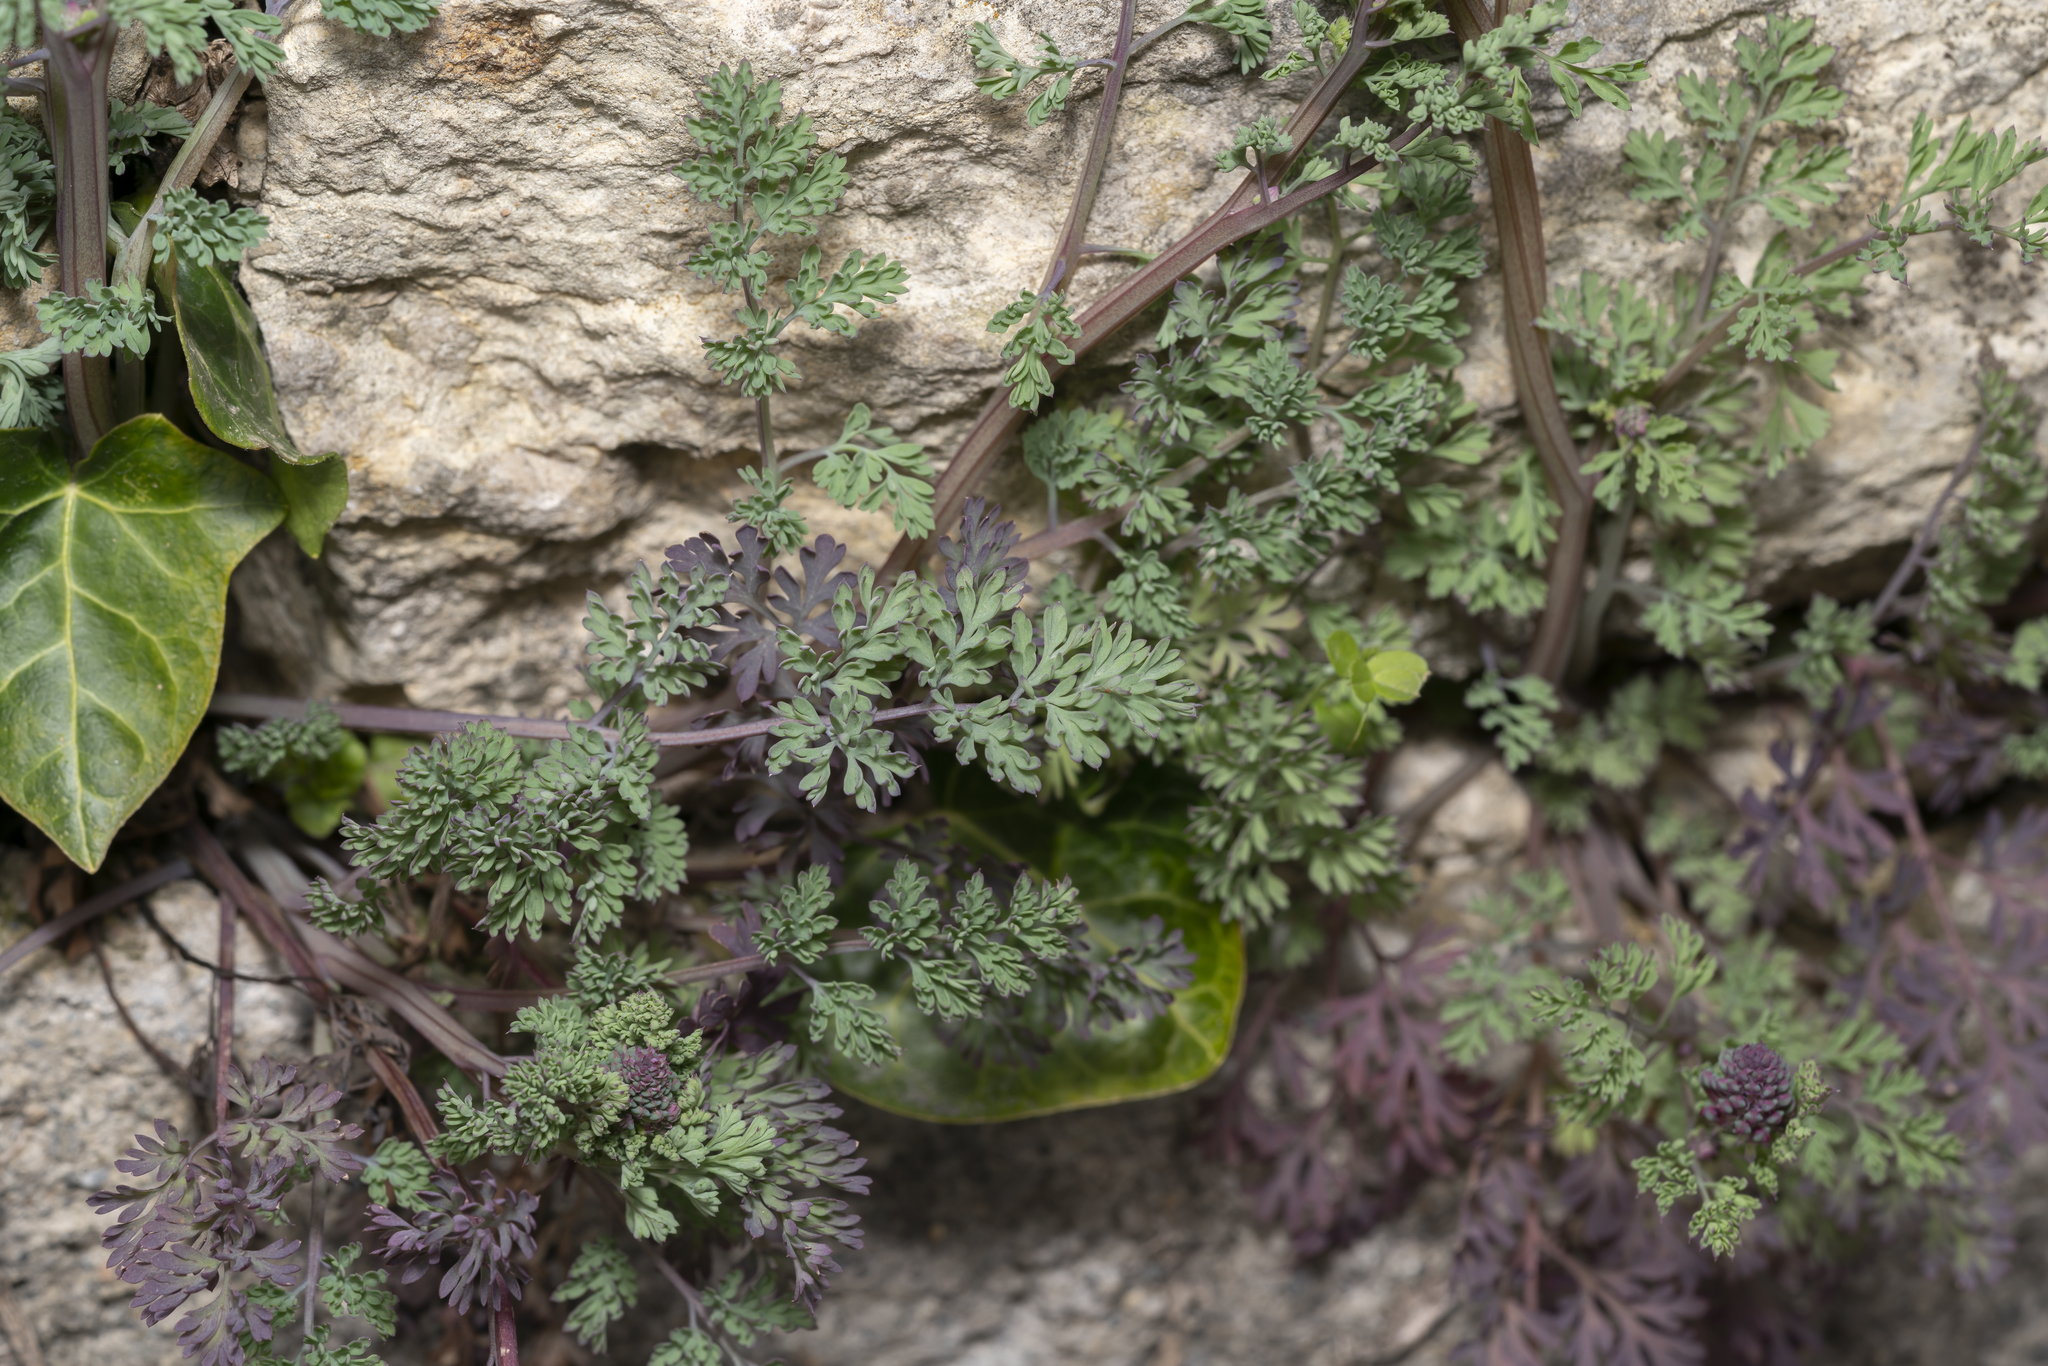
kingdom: Plantae
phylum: Tracheophyta
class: Magnoliopsida
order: Ranunculales
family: Papaveraceae
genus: Fumaria
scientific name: Fumaria officinalis
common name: Common fumitory
